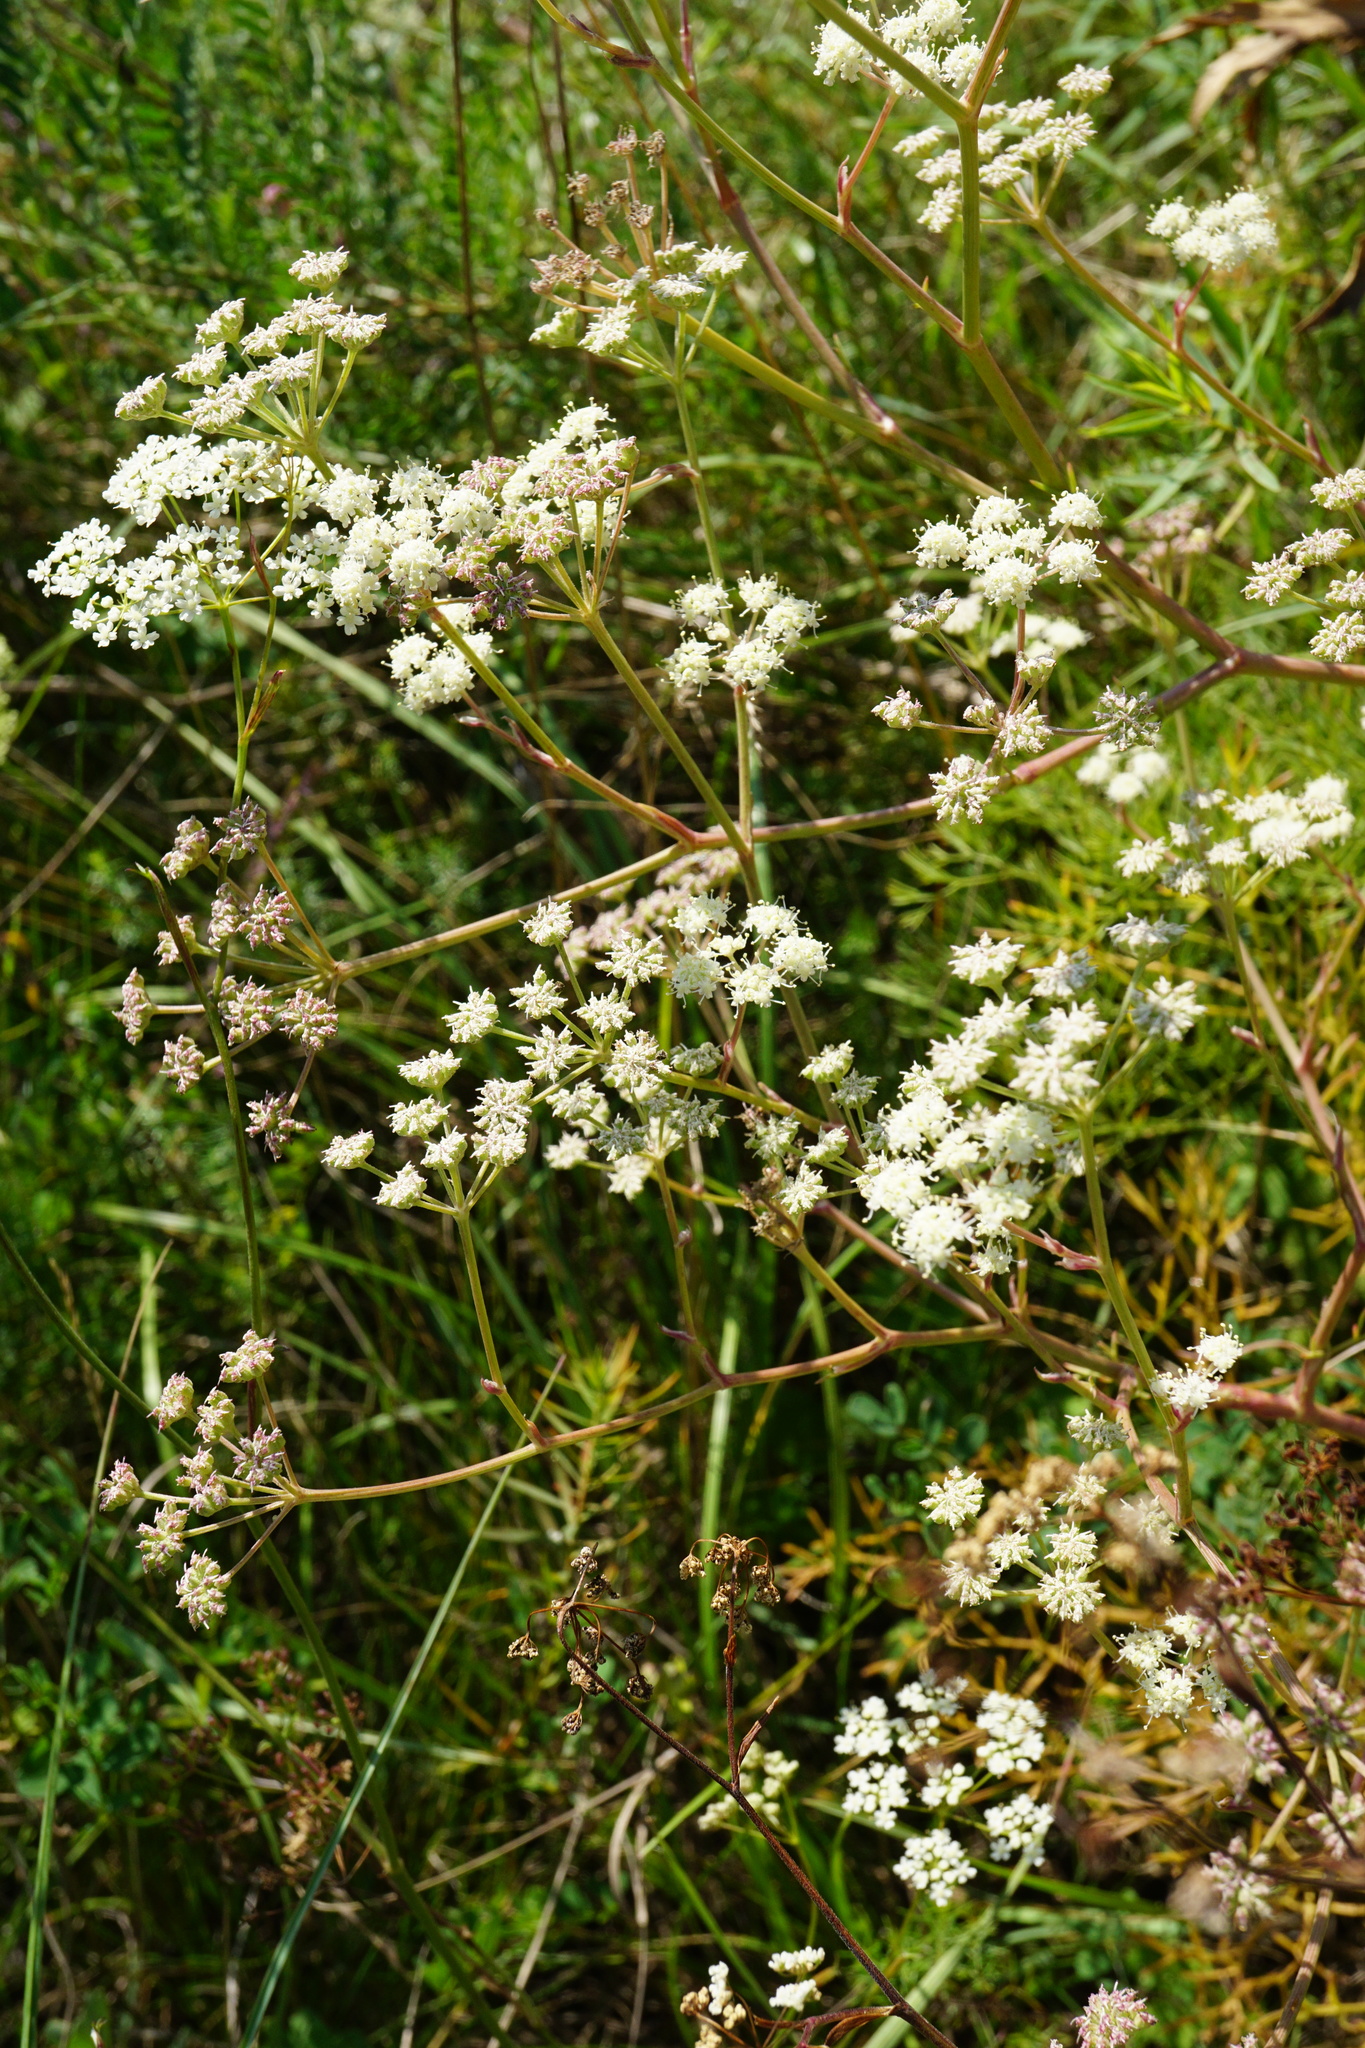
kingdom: Plantae
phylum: Tracheophyta
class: Magnoliopsida
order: Apiales
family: Apiaceae
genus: Seseli
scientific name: Seseli campestre
